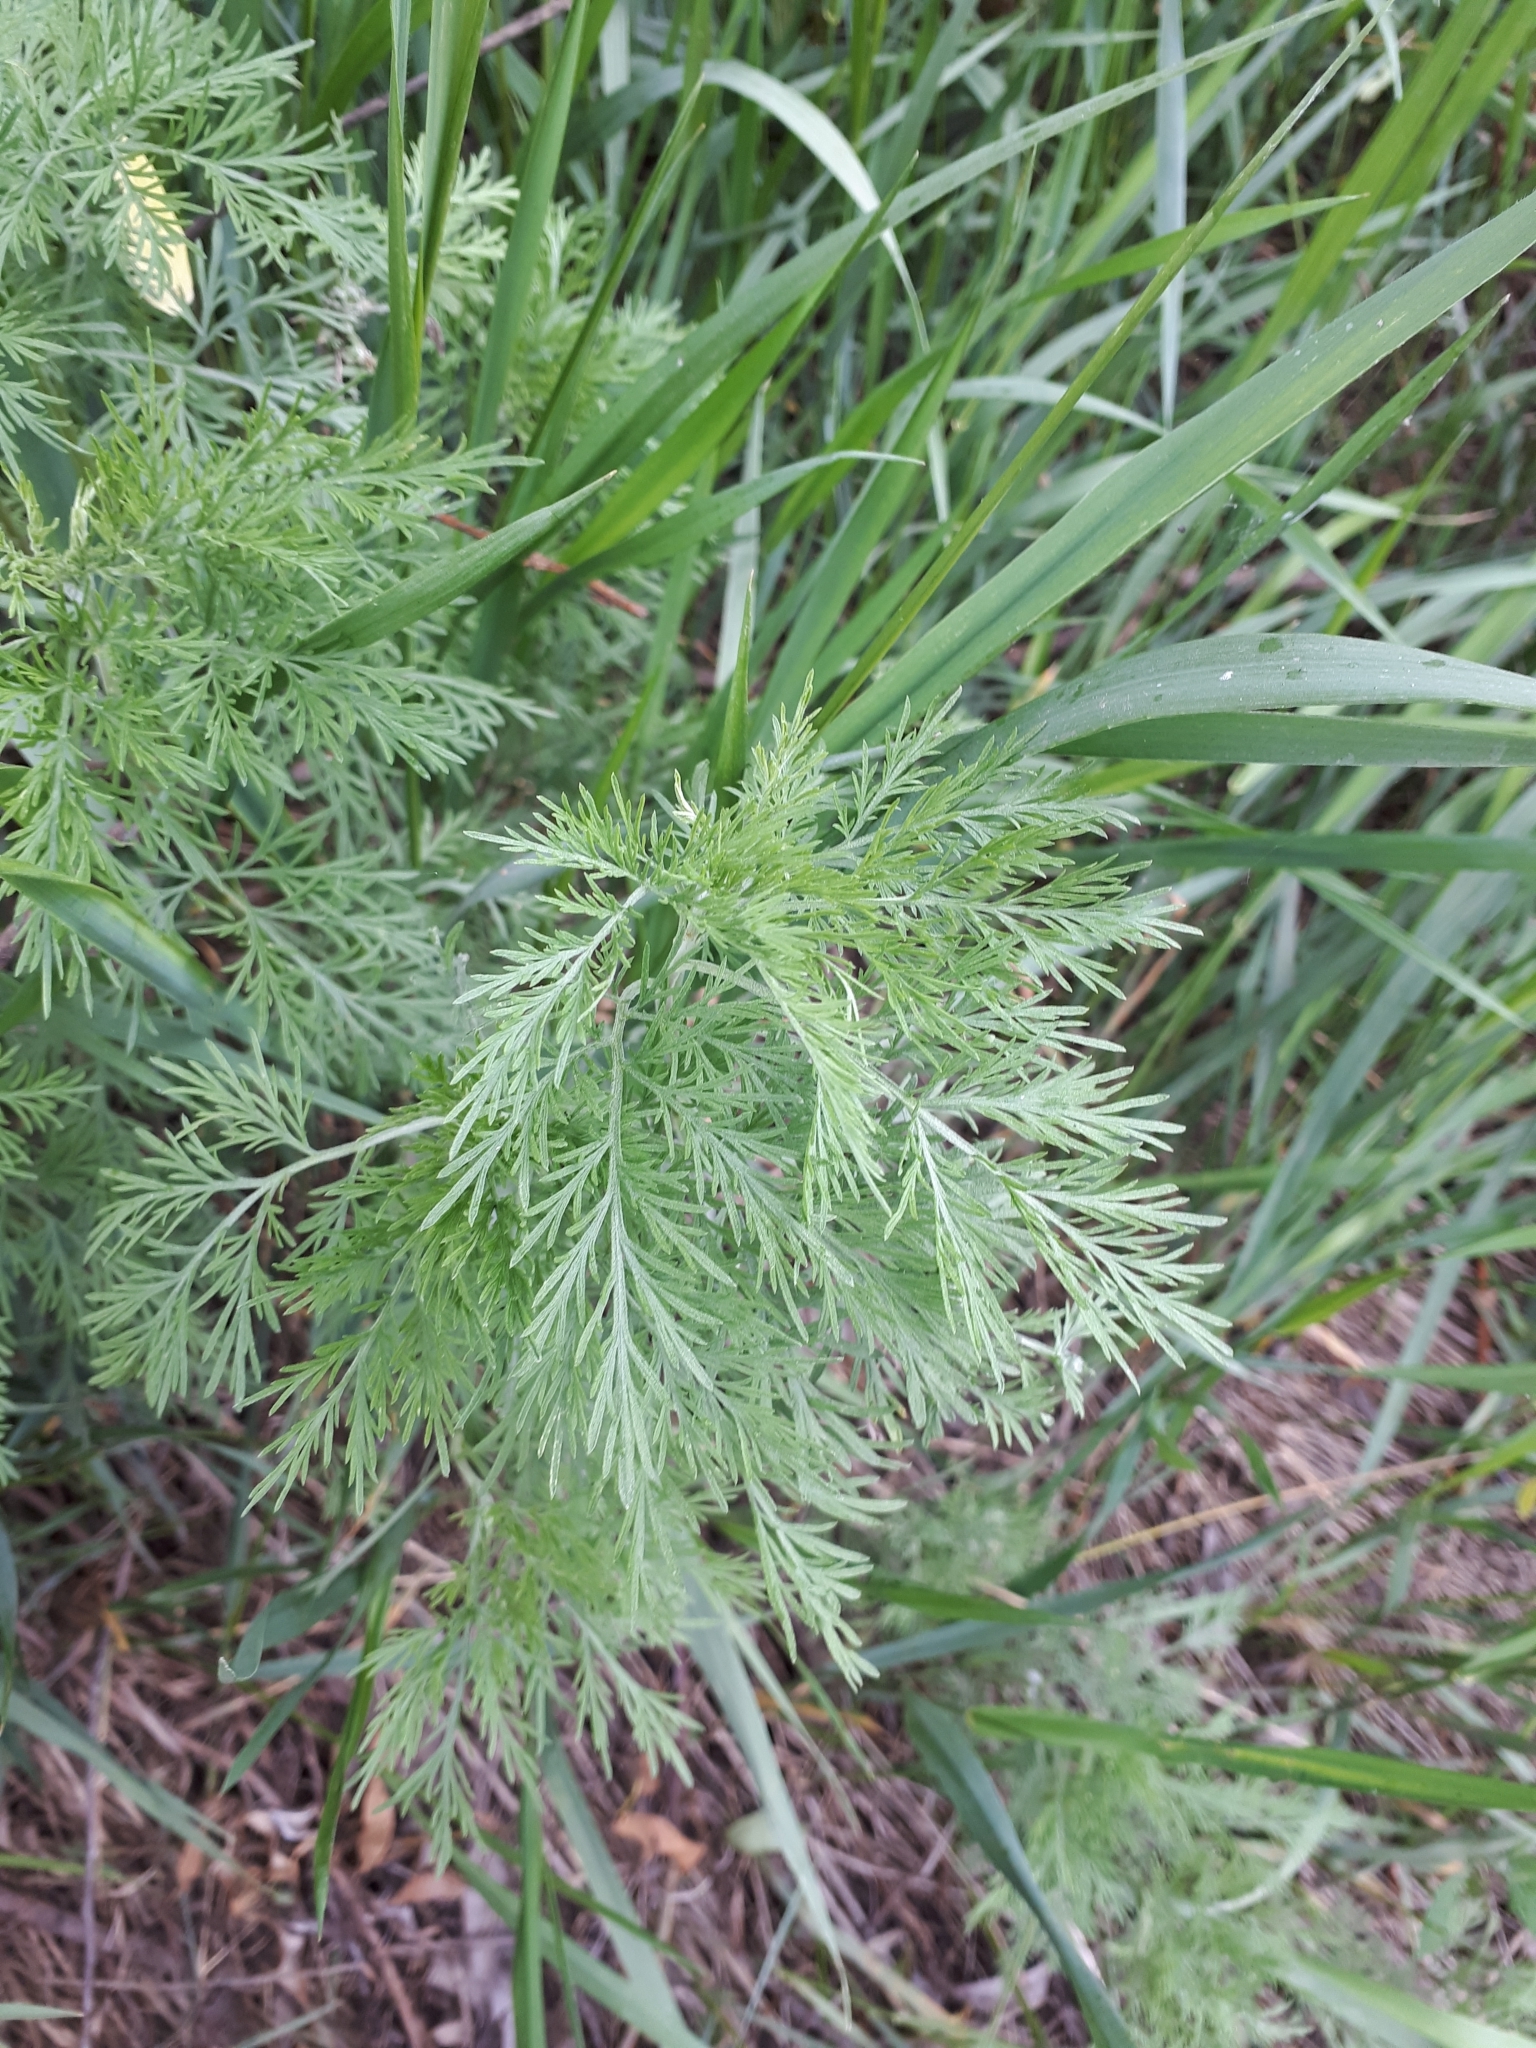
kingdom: Plantae
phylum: Tracheophyta
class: Magnoliopsida
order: Asterales
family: Asteraceae
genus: Artemisia
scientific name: Artemisia abrotanum
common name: Southernwood
